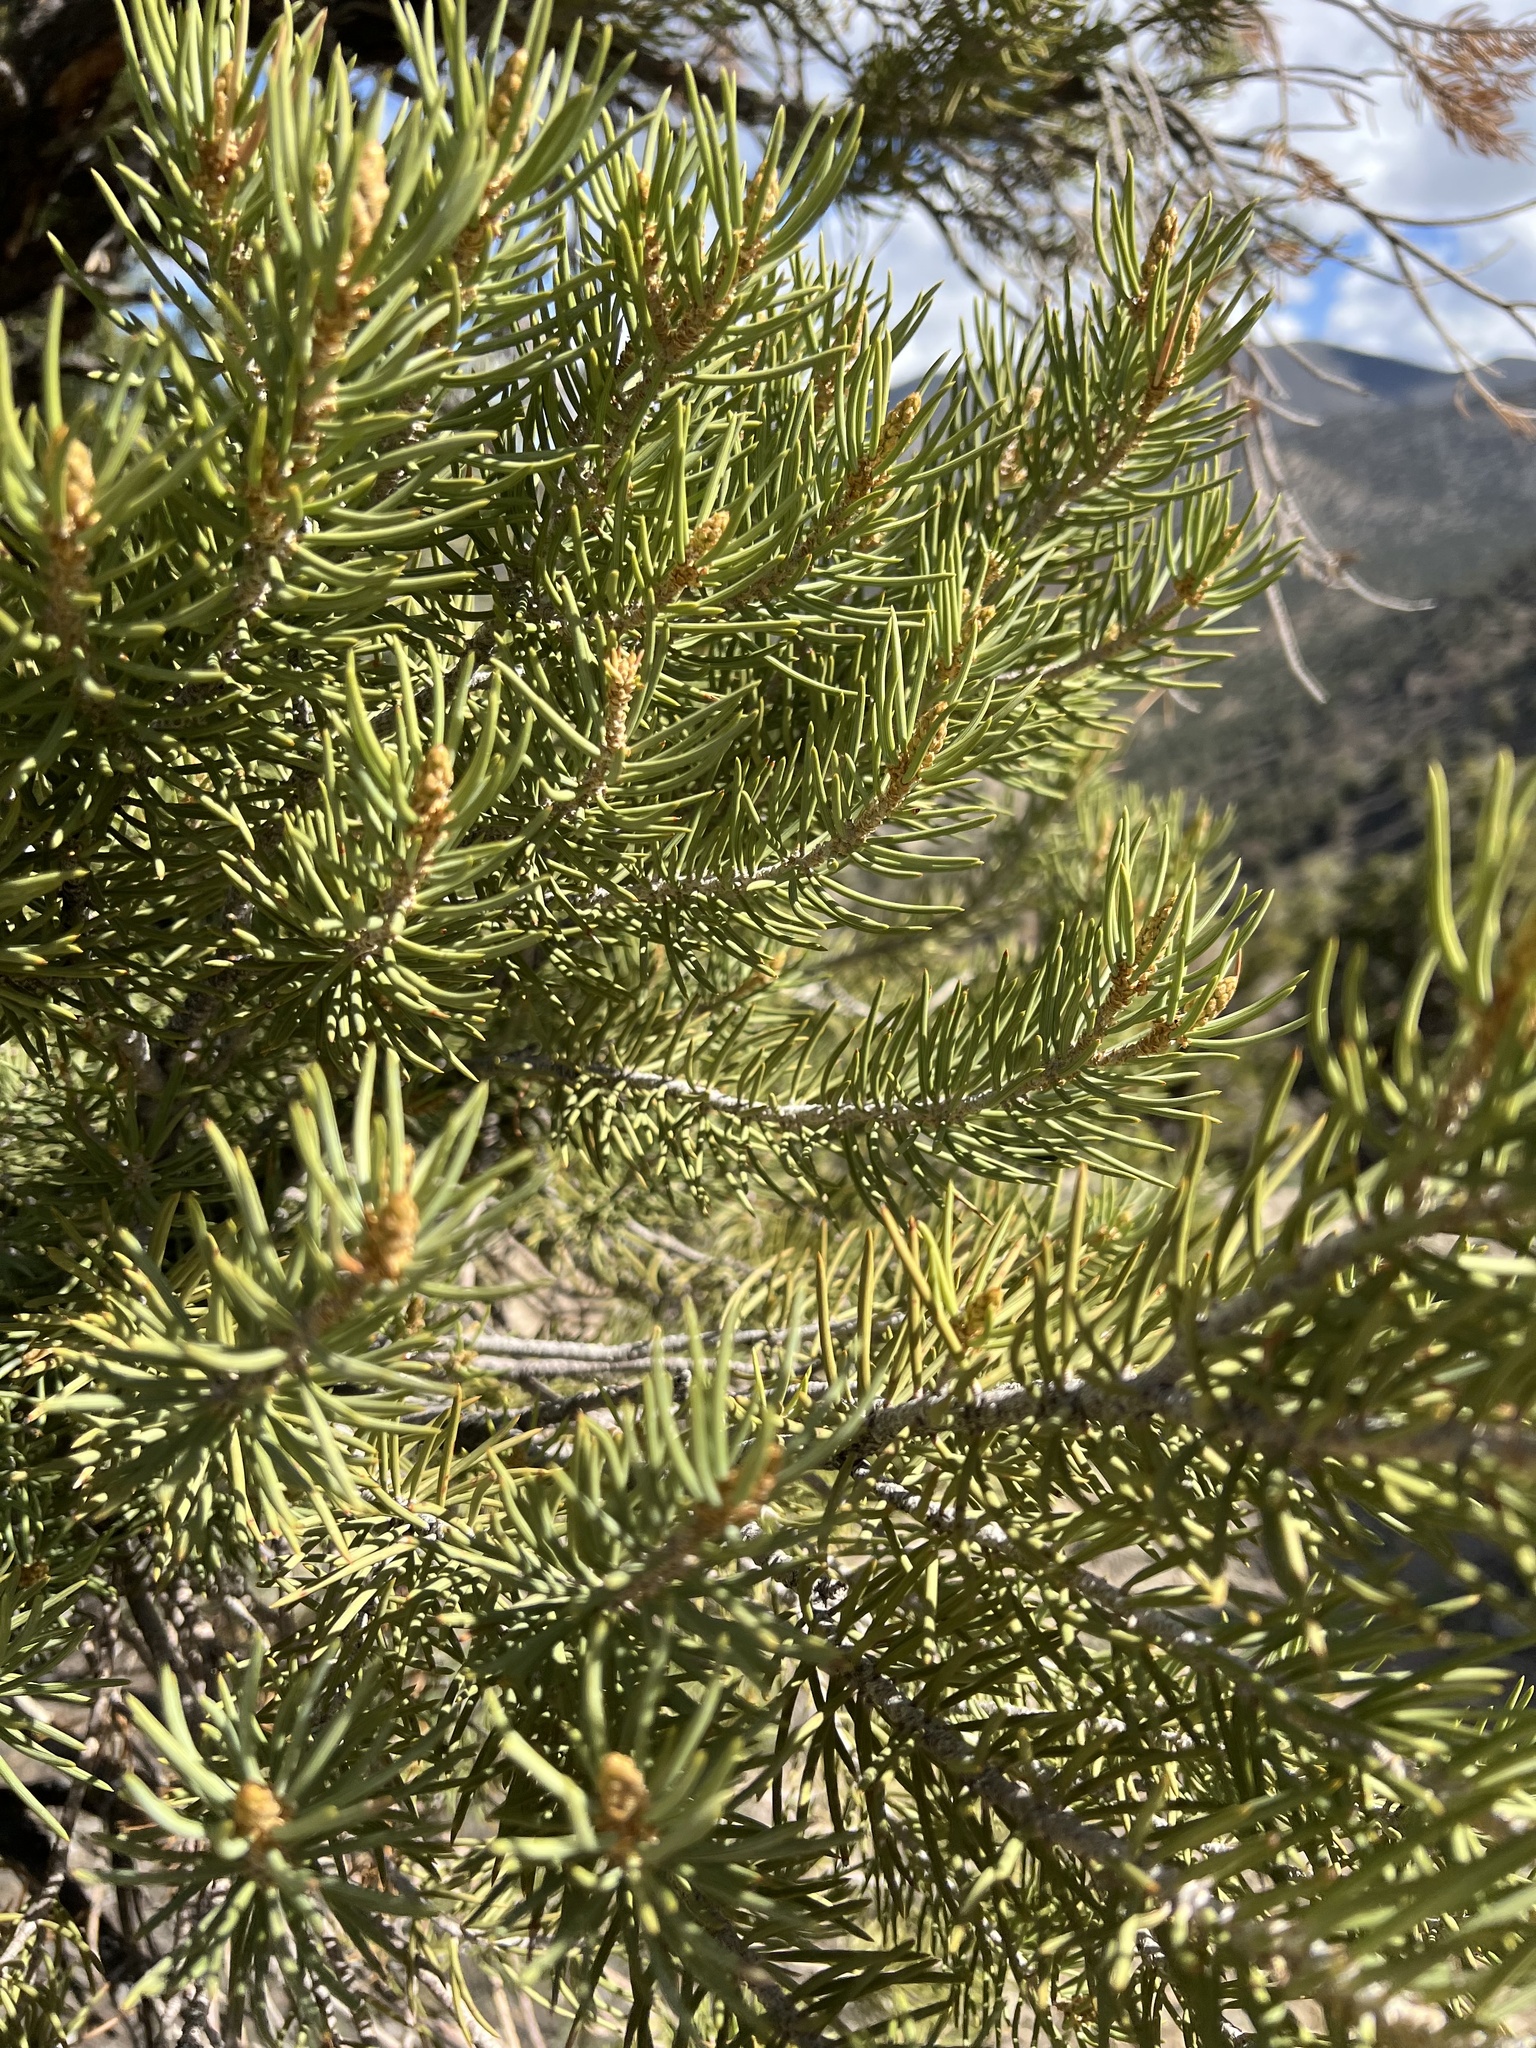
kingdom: Plantae
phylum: Tracheophyta
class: Pinopsida
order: Pinales
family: Pinaceae
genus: Pinus
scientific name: Pinus monophylla
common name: One-leaved nut pine
